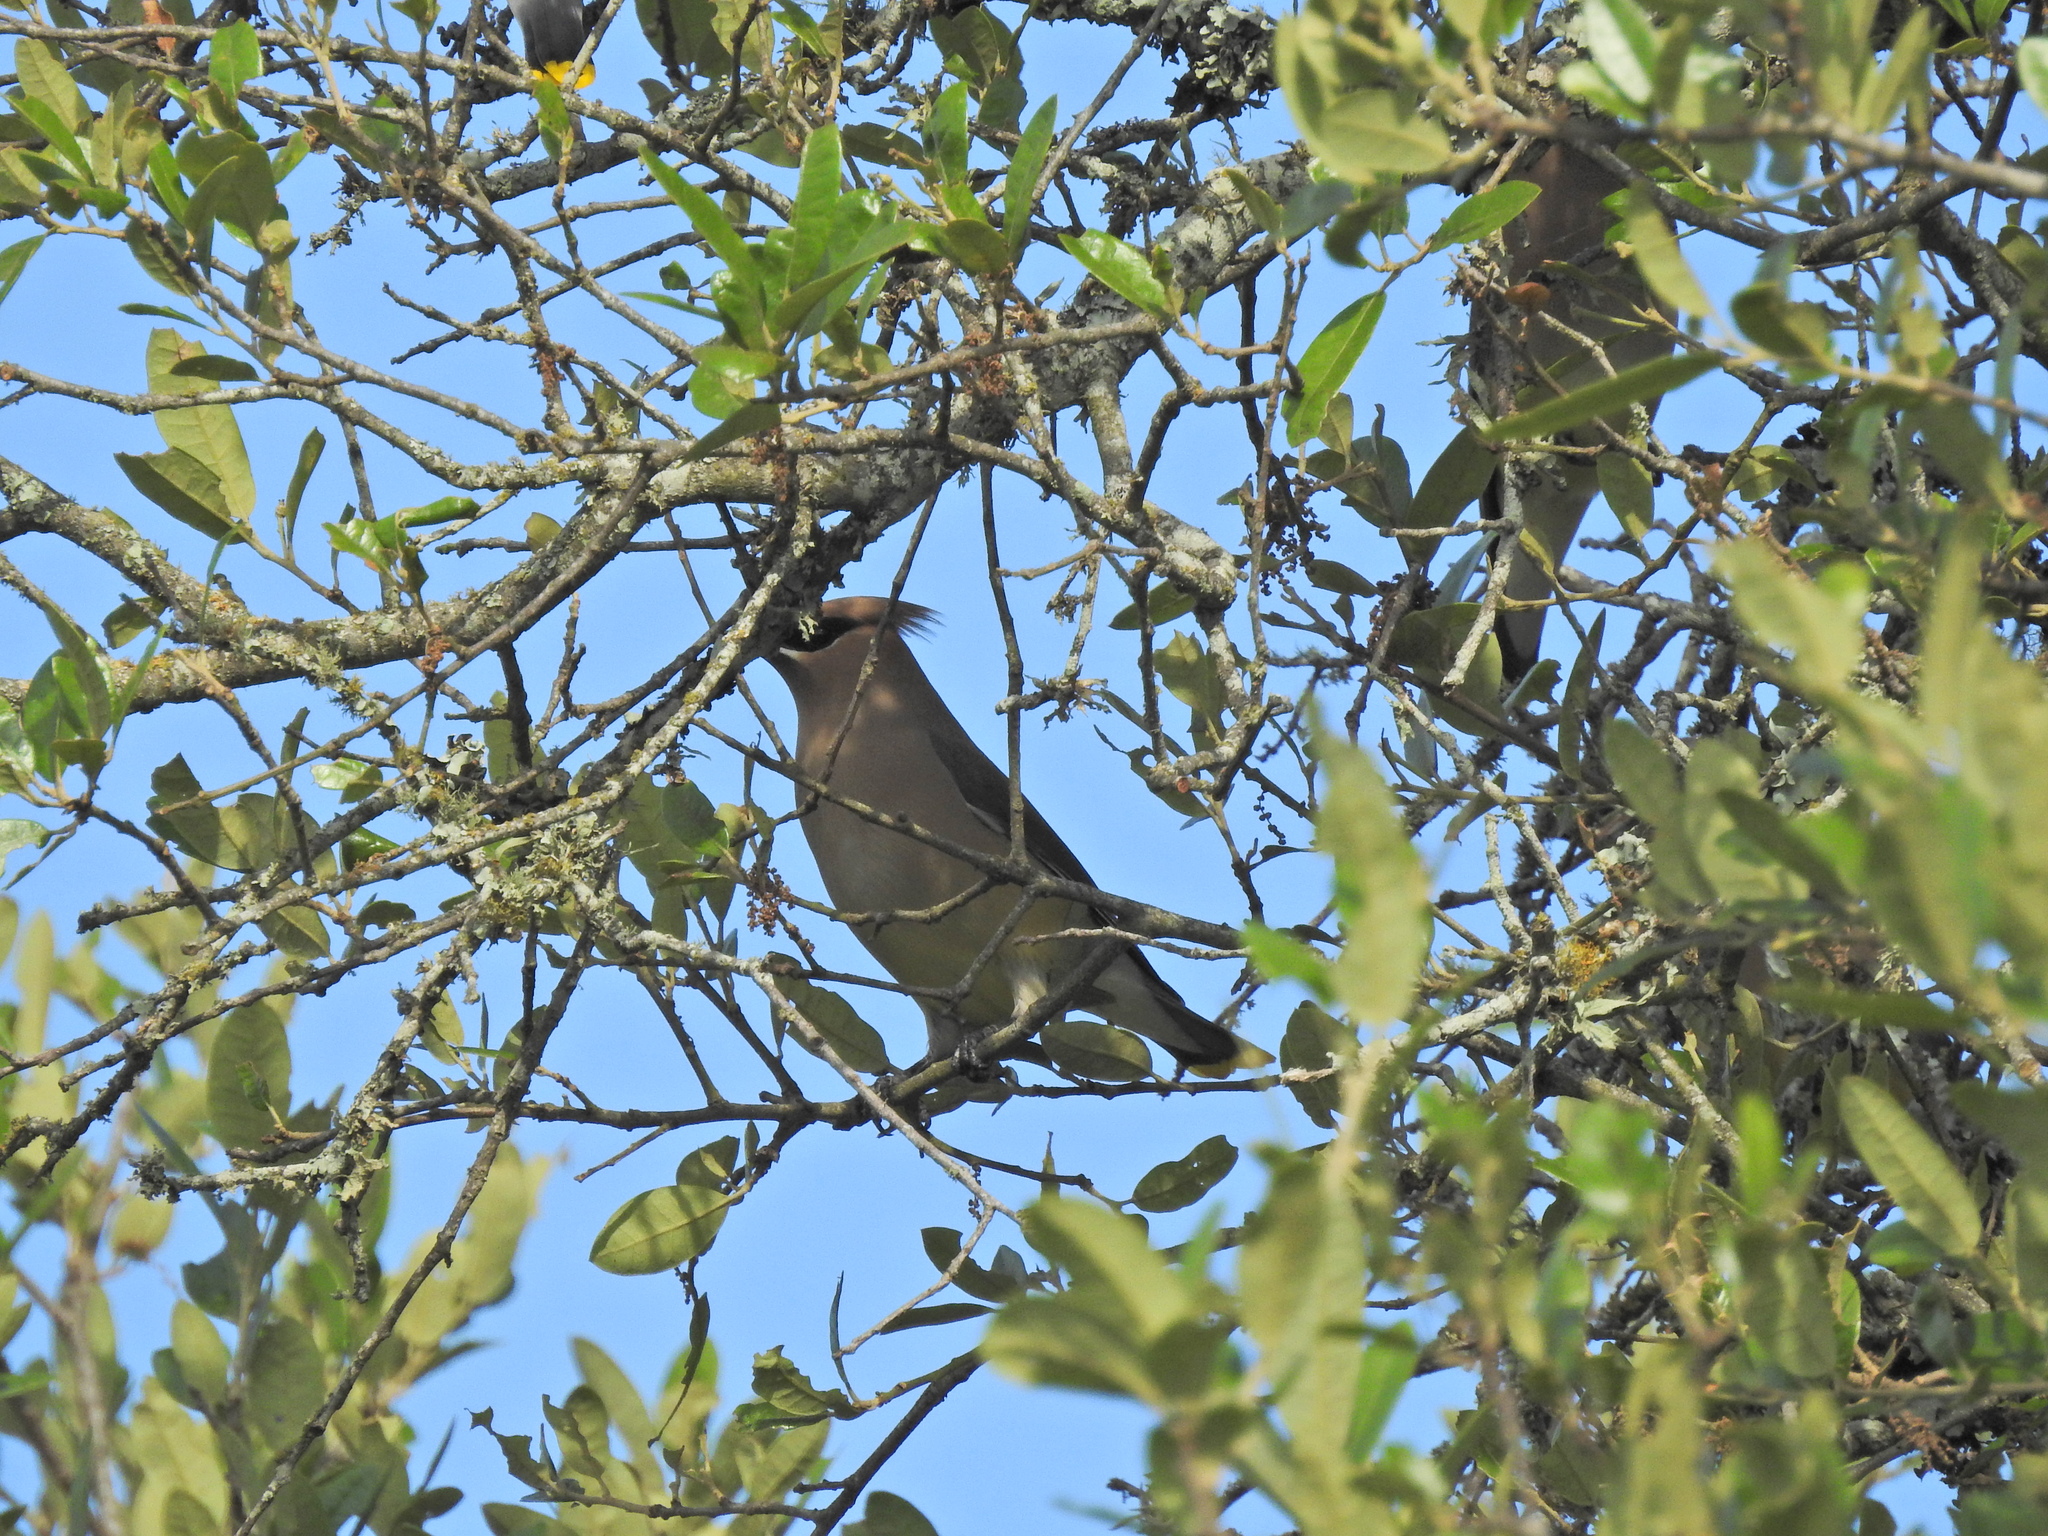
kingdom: Animalia
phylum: Chordata
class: Aves
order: Passeriformes
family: Bombycillidae
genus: Bombycilla
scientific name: Bombycilla cedrorum
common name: Cedar waxwing
